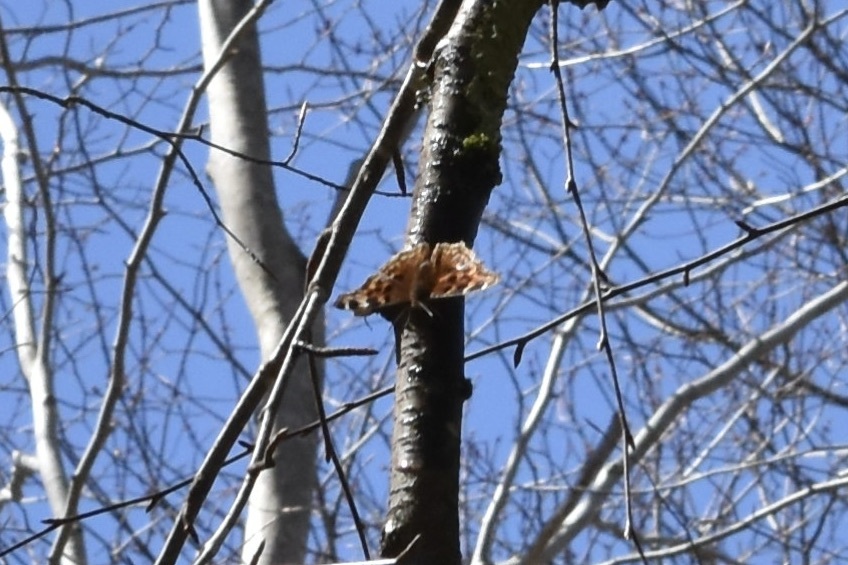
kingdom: Animalia
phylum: Arthropoda
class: Insecta
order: Lepidoptera
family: Nymphalidae
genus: Polygonia
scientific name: Polygonia vaualbum
